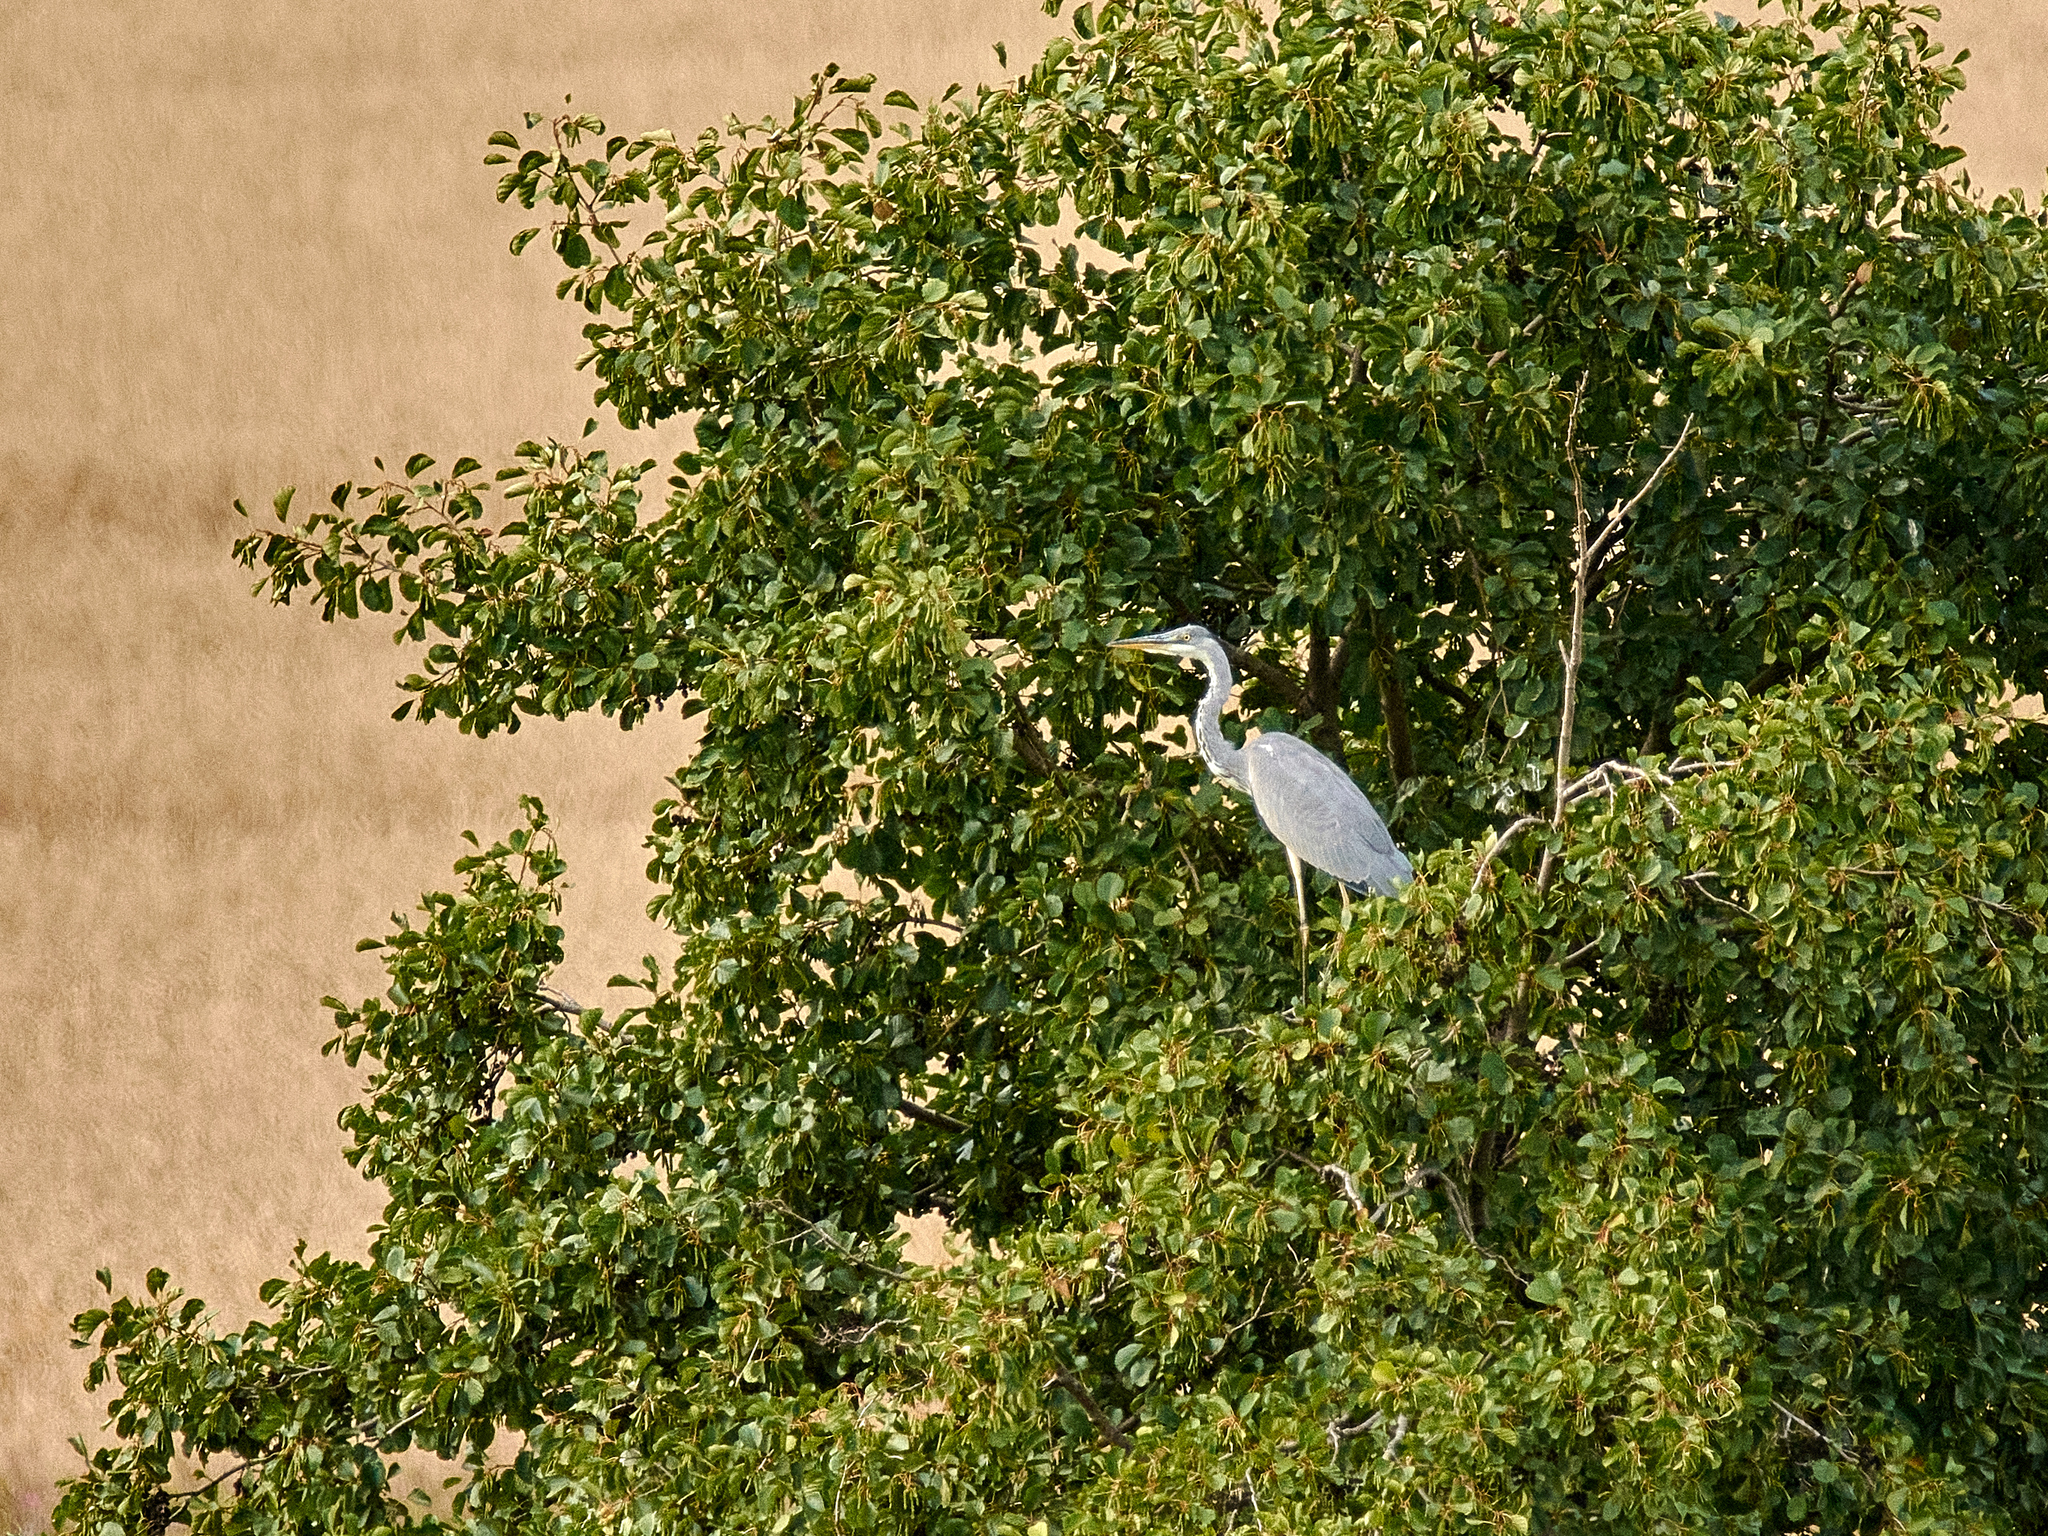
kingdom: Animalia
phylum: Chordata
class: Aves
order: Pelecaniformes
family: Ardeidae
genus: Ardea
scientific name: Ardea cinerea
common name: Grey heron
